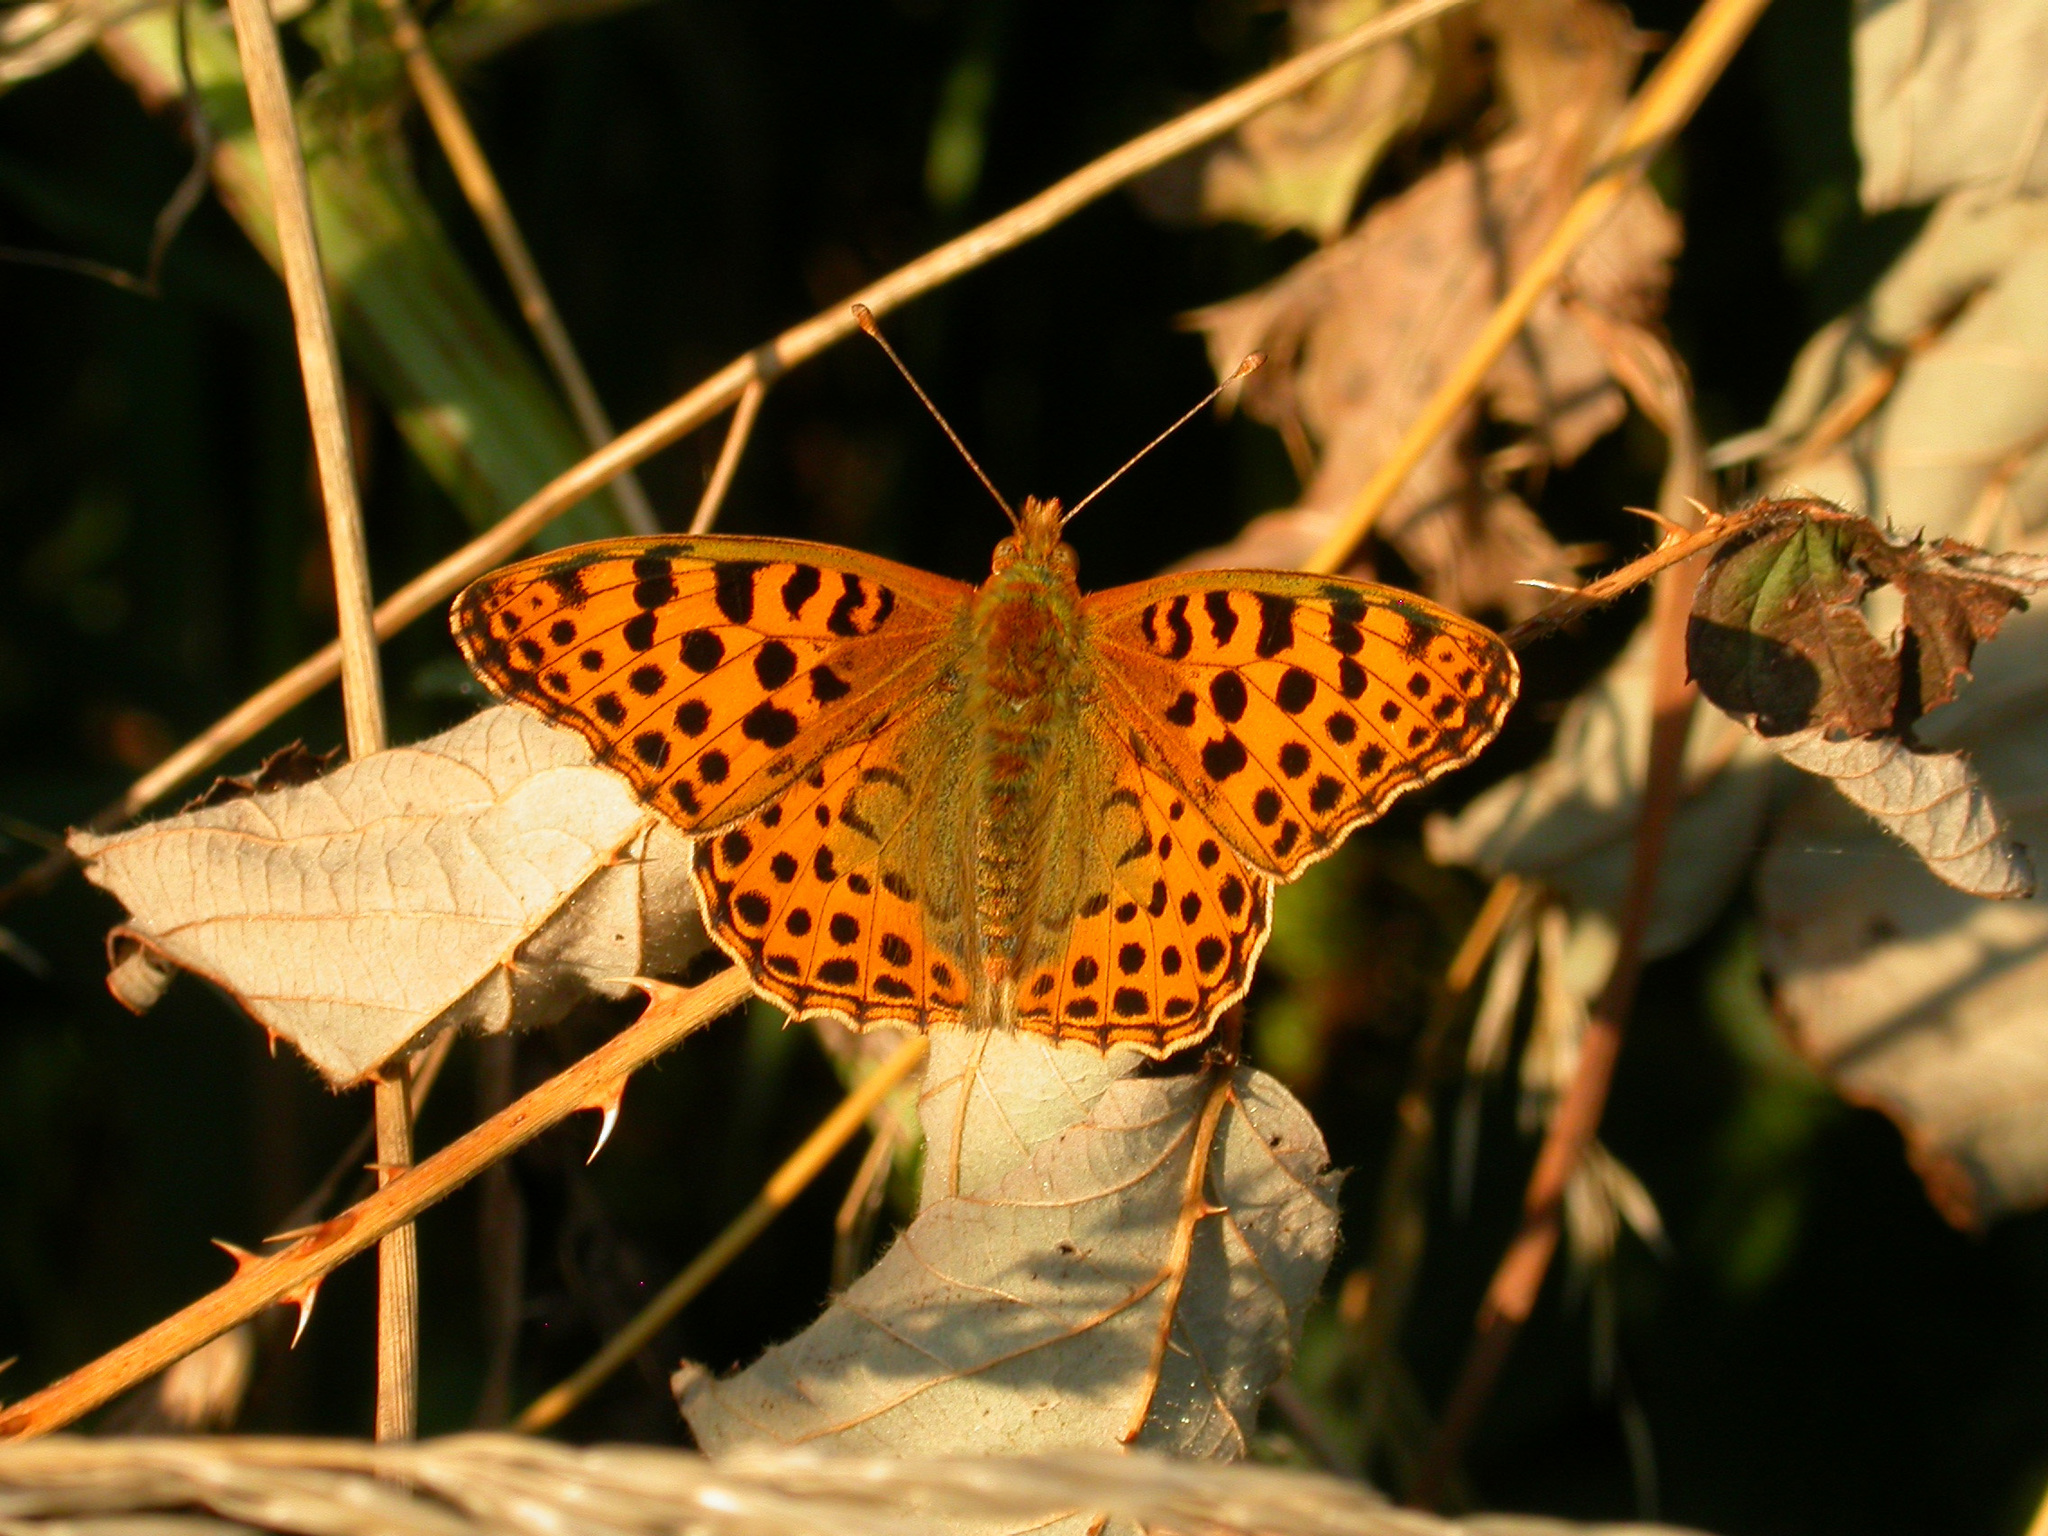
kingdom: Animalia
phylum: Arthropoda
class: Insecta
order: Lepidoptera
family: Nymphalidae
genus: Issoria
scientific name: Issoria lathonia
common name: Queen of spain fritillary
